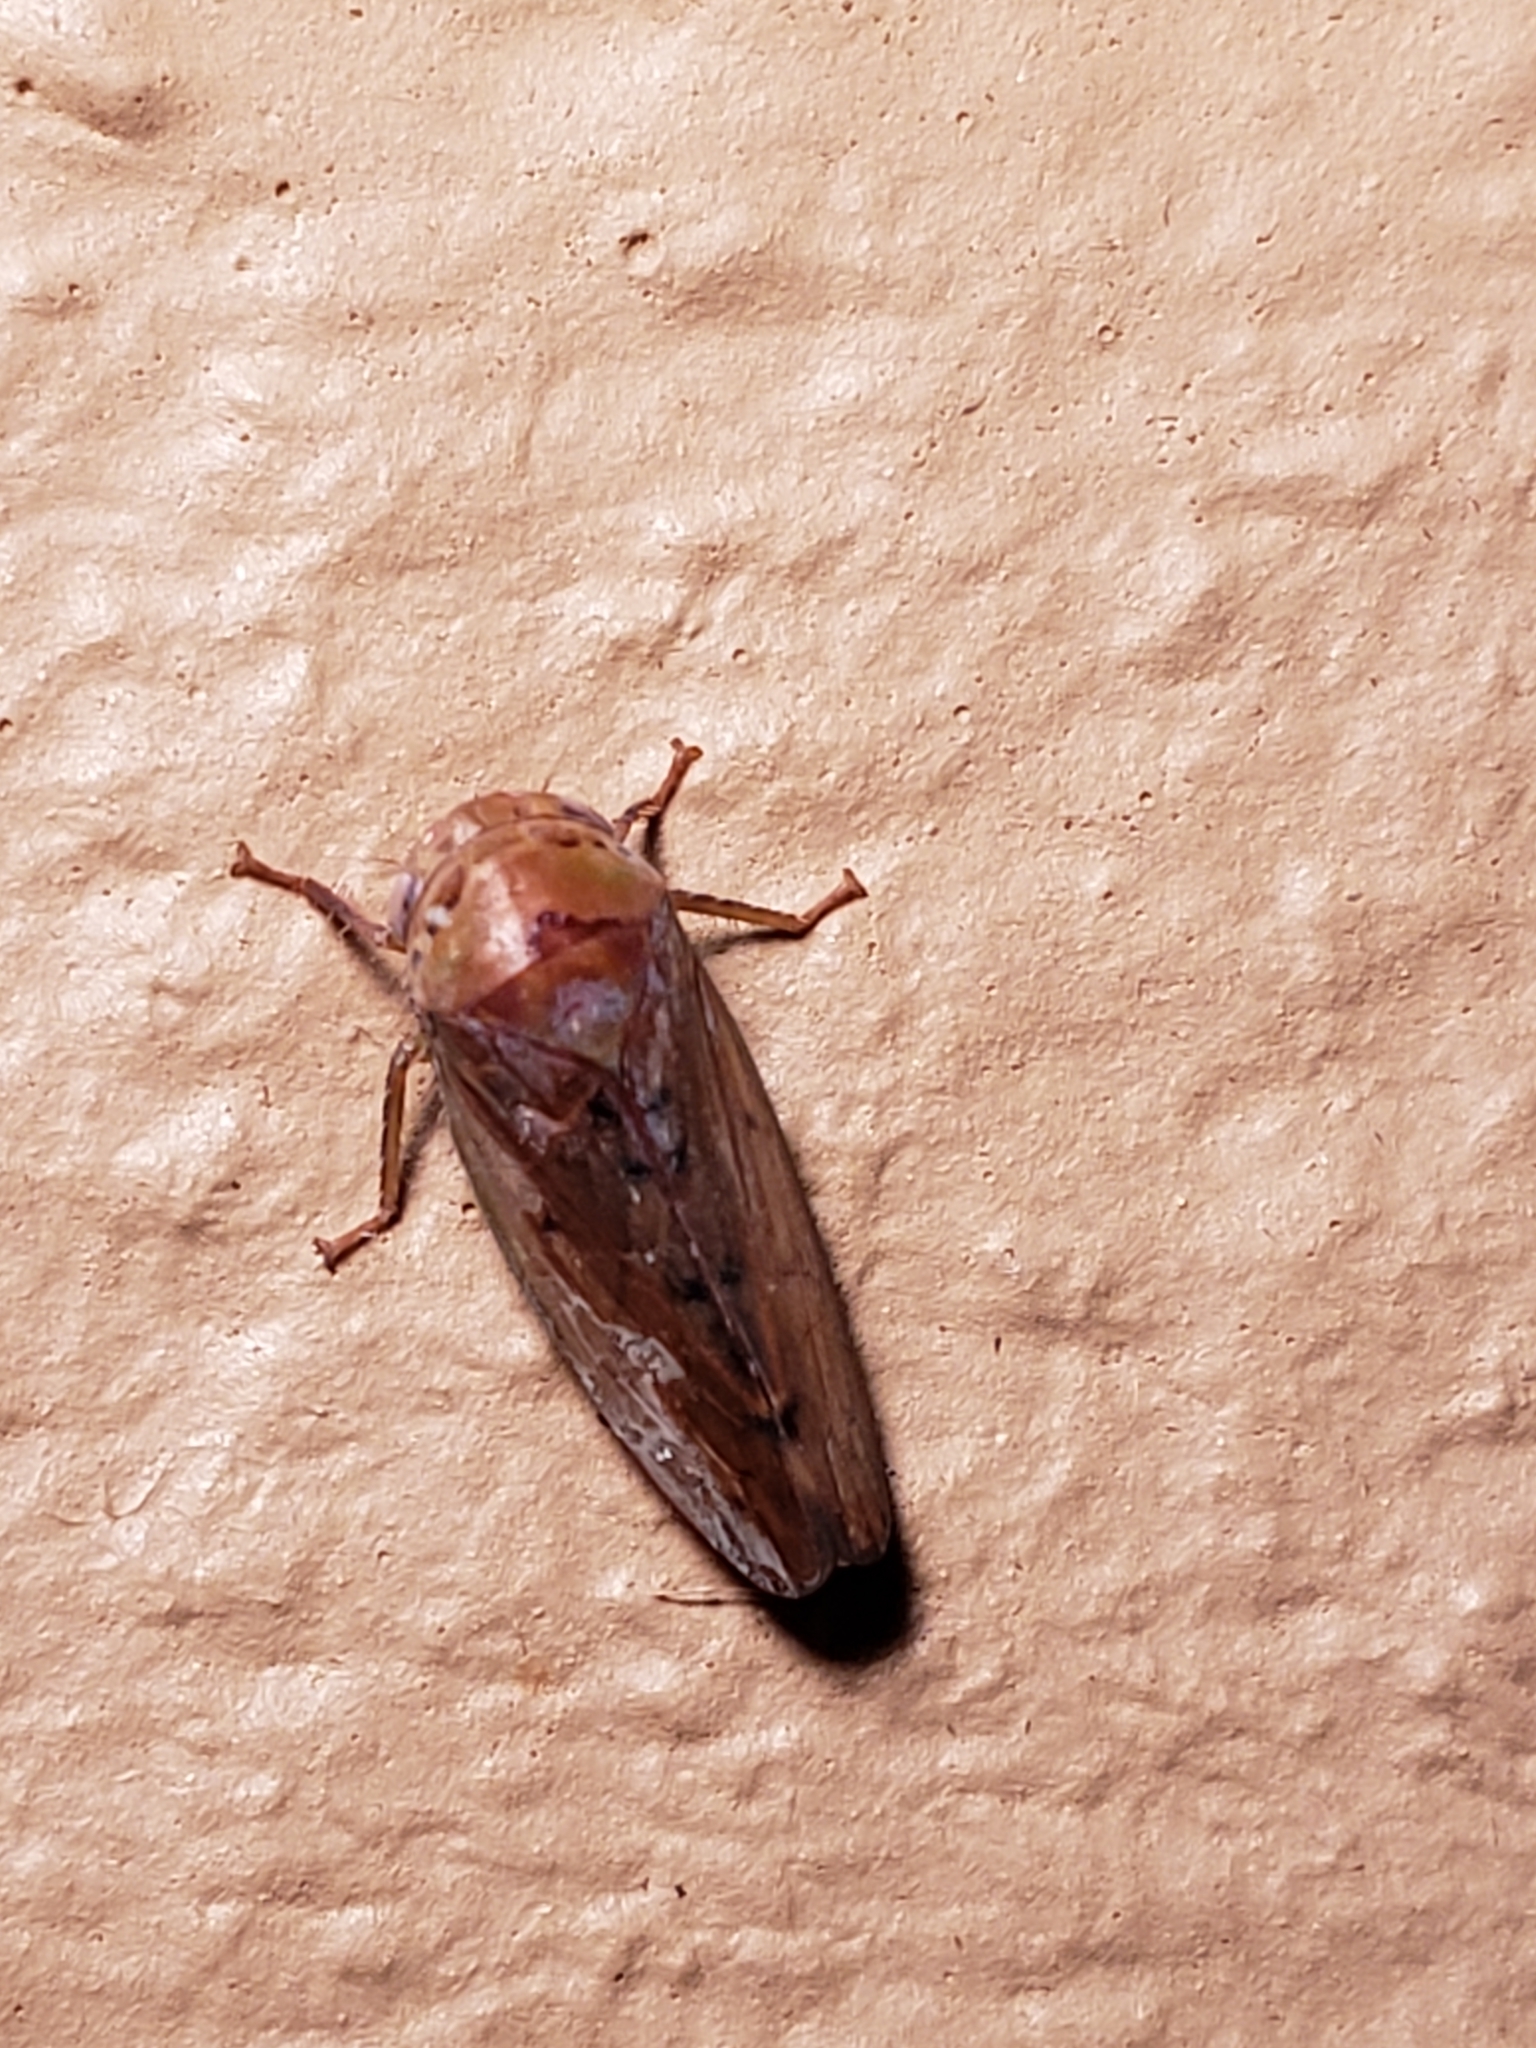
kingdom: Animalia
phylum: Arthropoda
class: Insecta
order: Hemiptera
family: Cicadellidae
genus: Polana
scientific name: Polana quadrinotata
